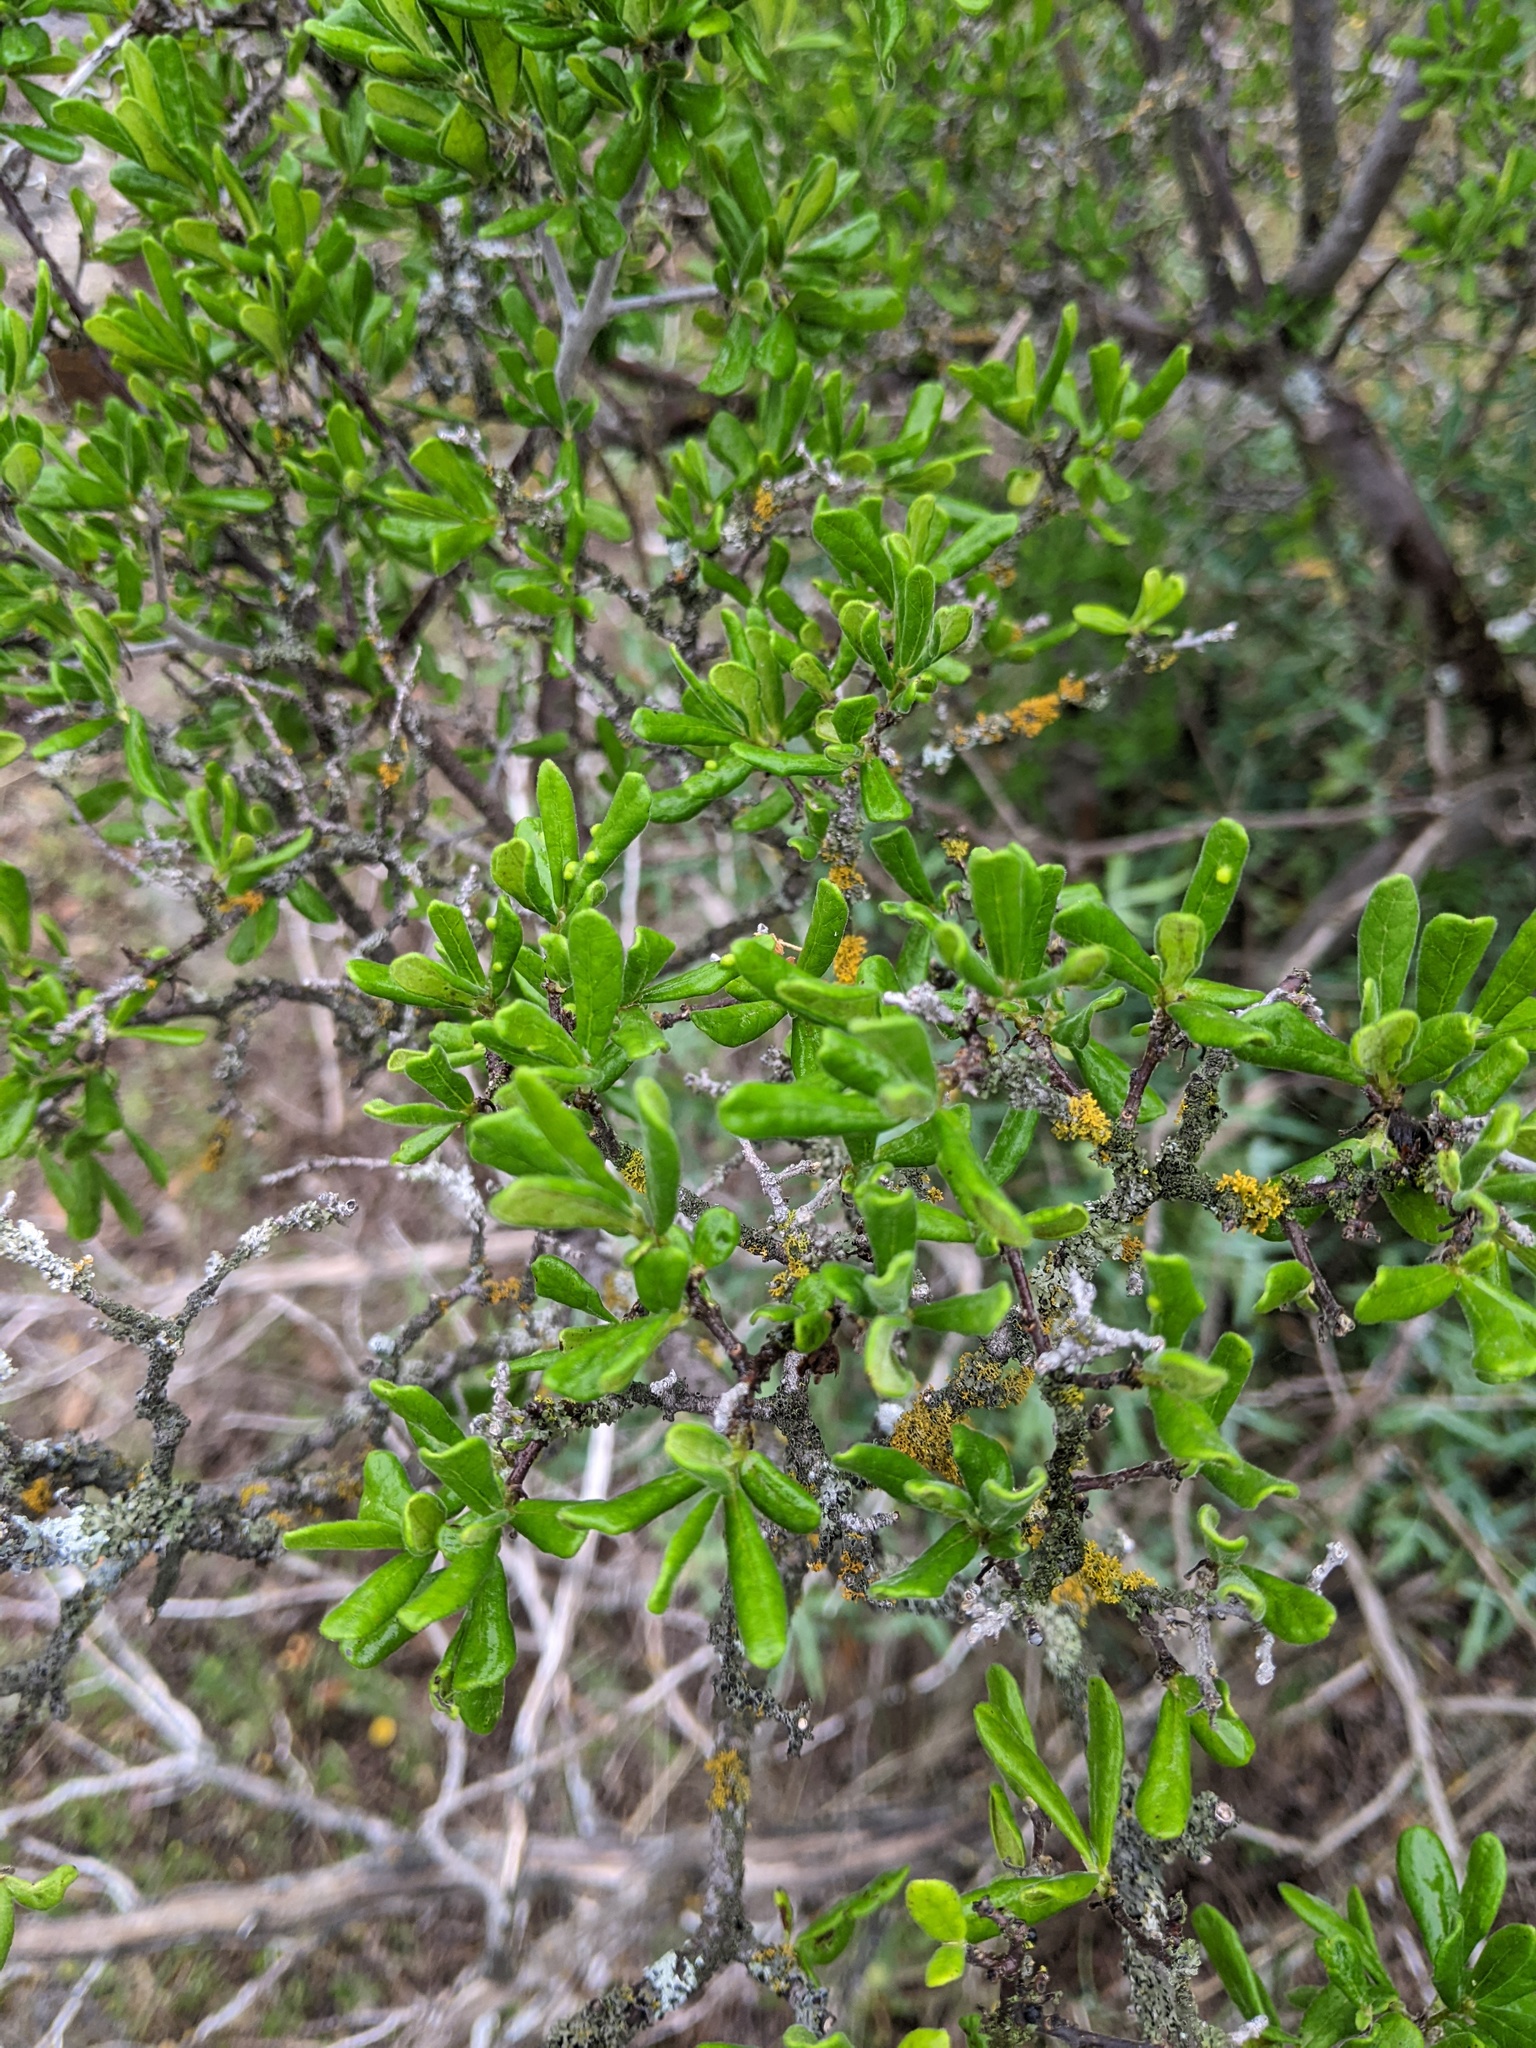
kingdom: Plantae
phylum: Tracheophyta
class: Magnoliopsida
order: Ericales
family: Ebenaceae
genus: Diospyros
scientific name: Diospyros texana
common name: Texas persimmon
